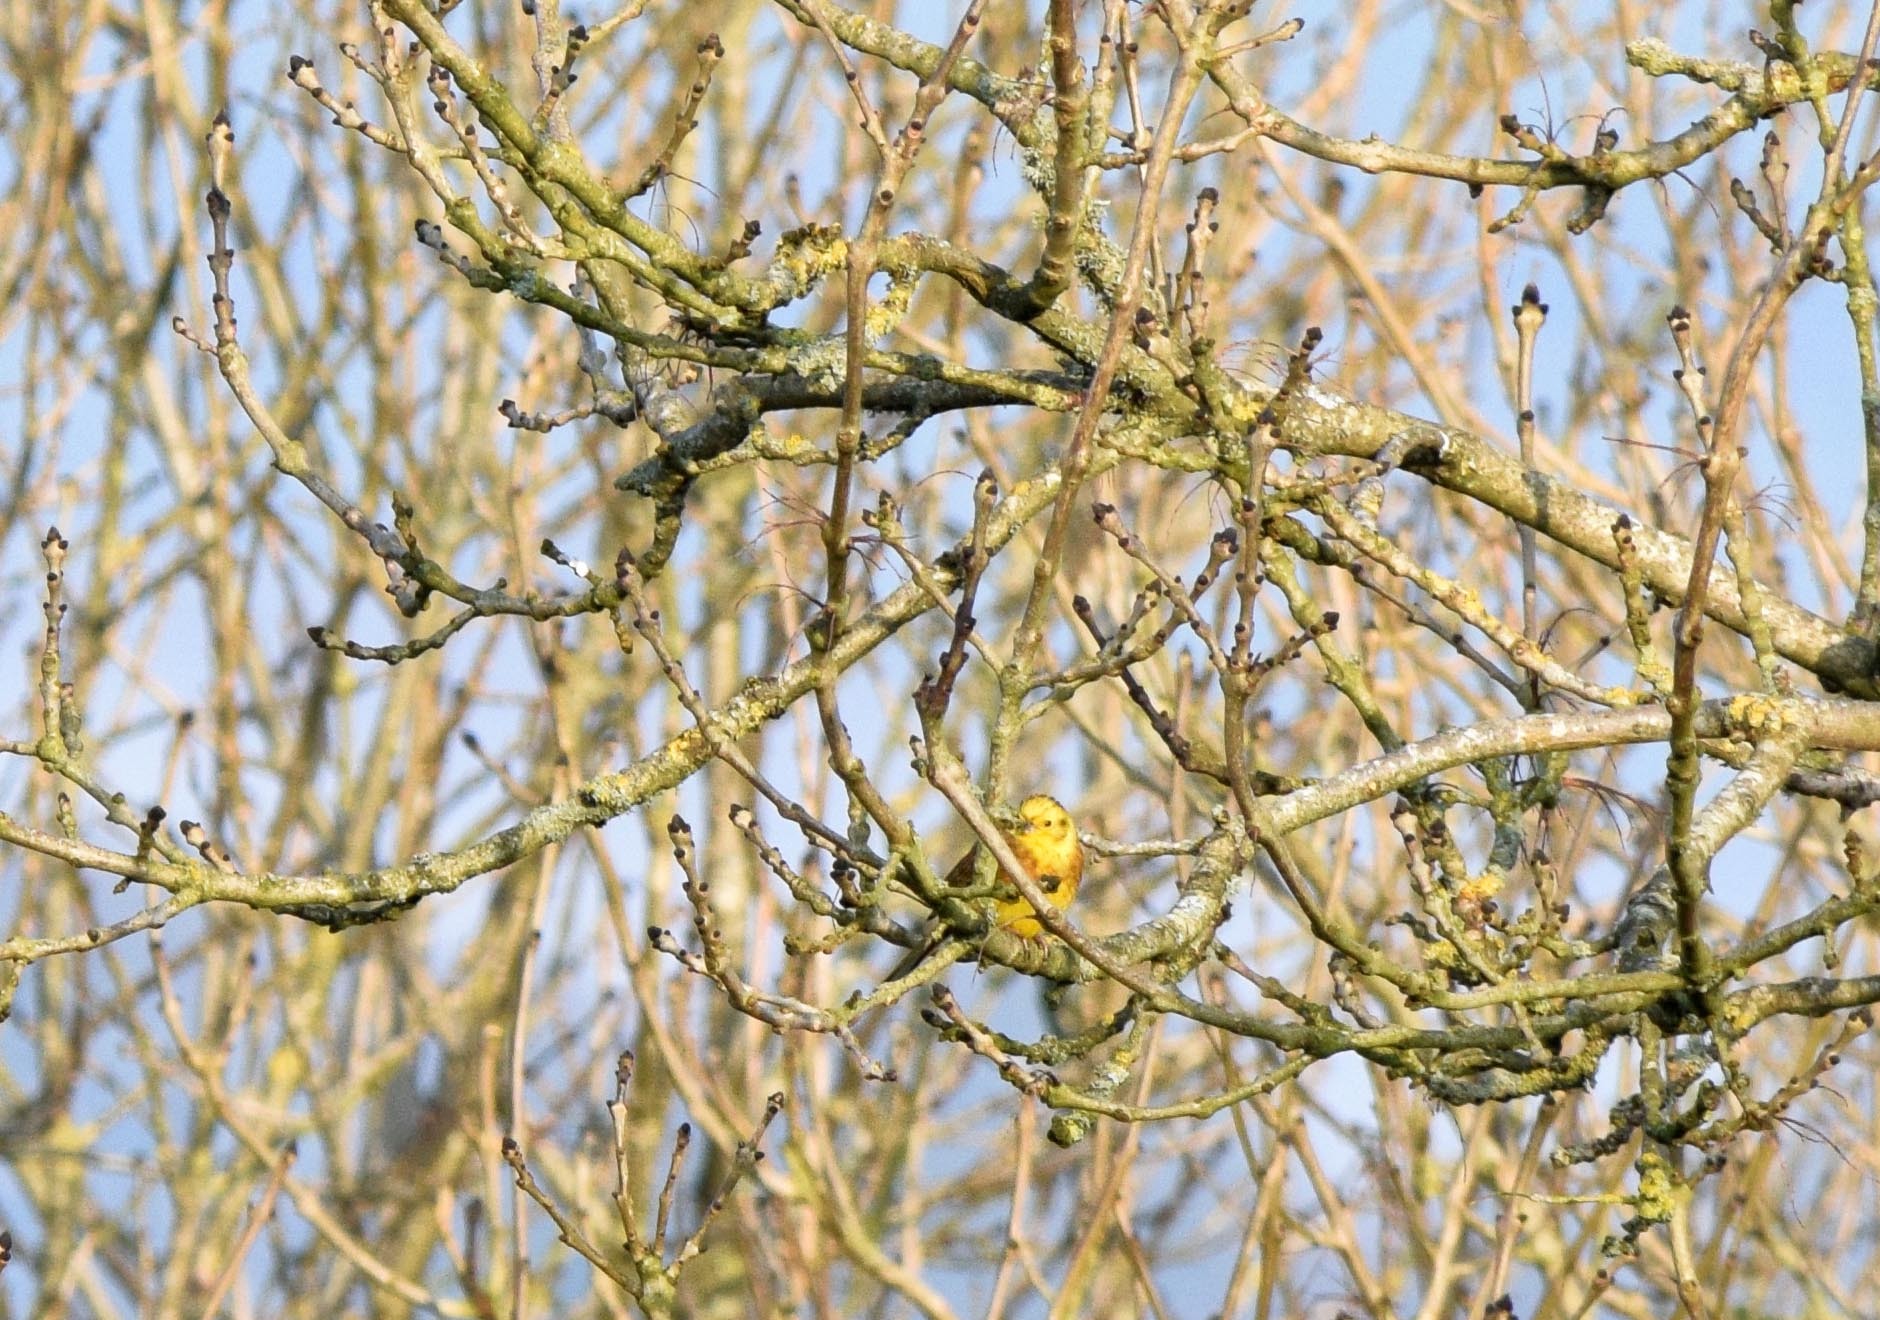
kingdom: Animalia
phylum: Chordata
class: Aves
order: Passeriformes
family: Emberizidae
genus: Emberiza
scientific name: Emberiza citrinella
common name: Yellowhammer
